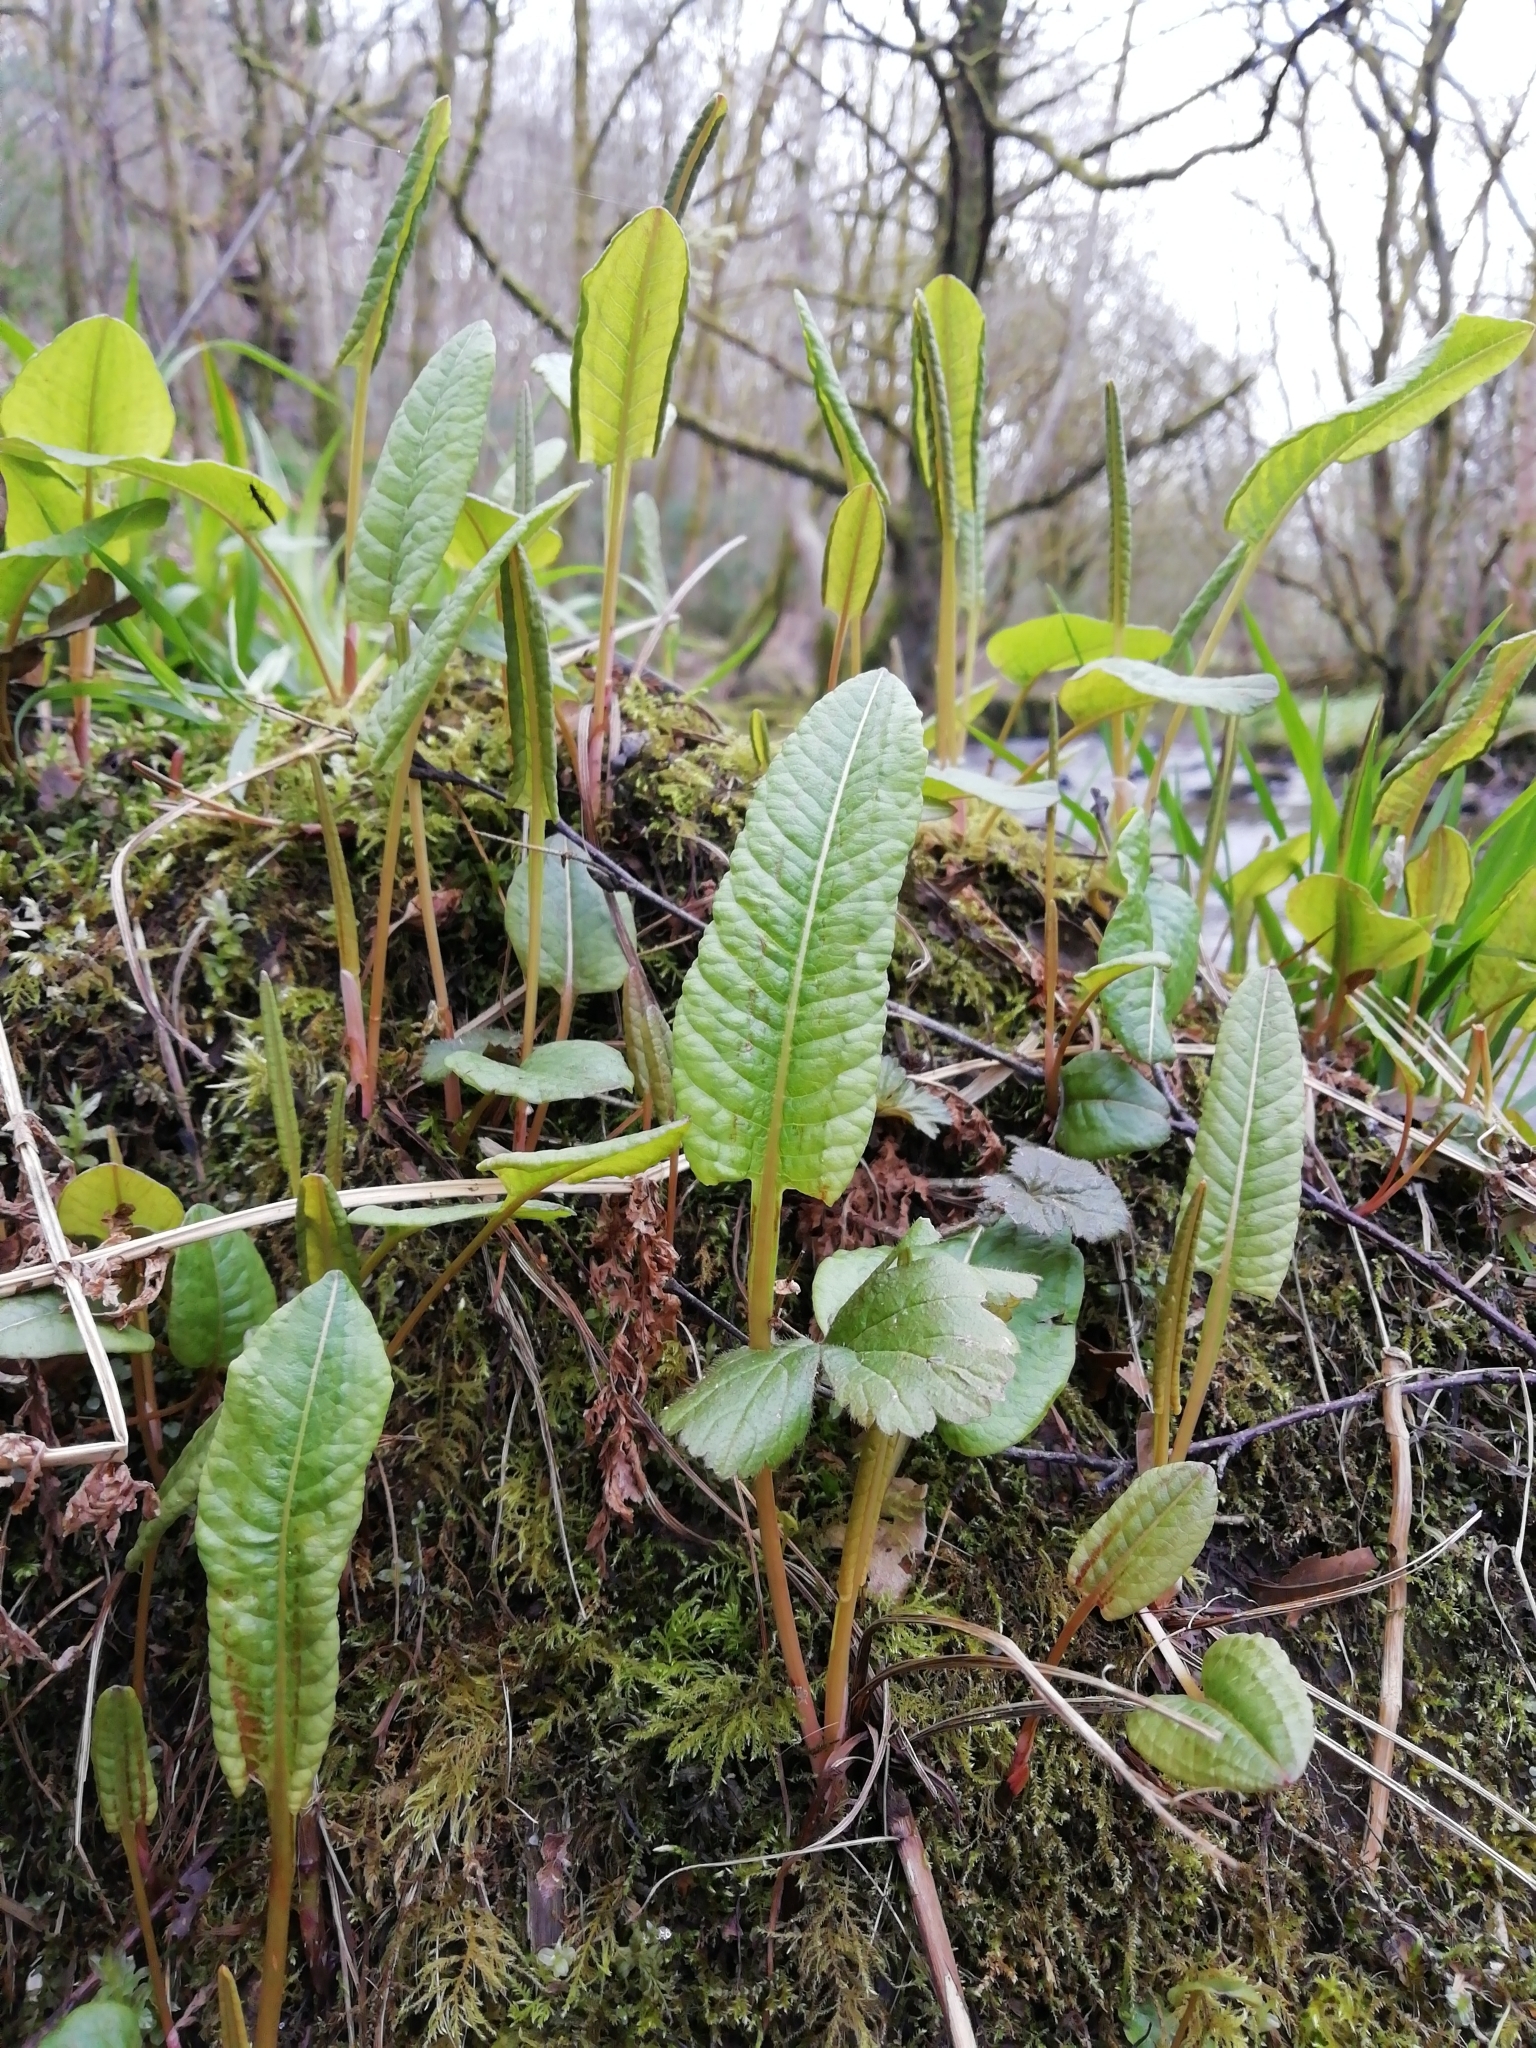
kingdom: Plantae
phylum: Tracheophyta
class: Magnoliopsida
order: Caryophyllales
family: Polygonaceae
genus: Bistorta
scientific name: Bistorta officinalis
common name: Common bistort
